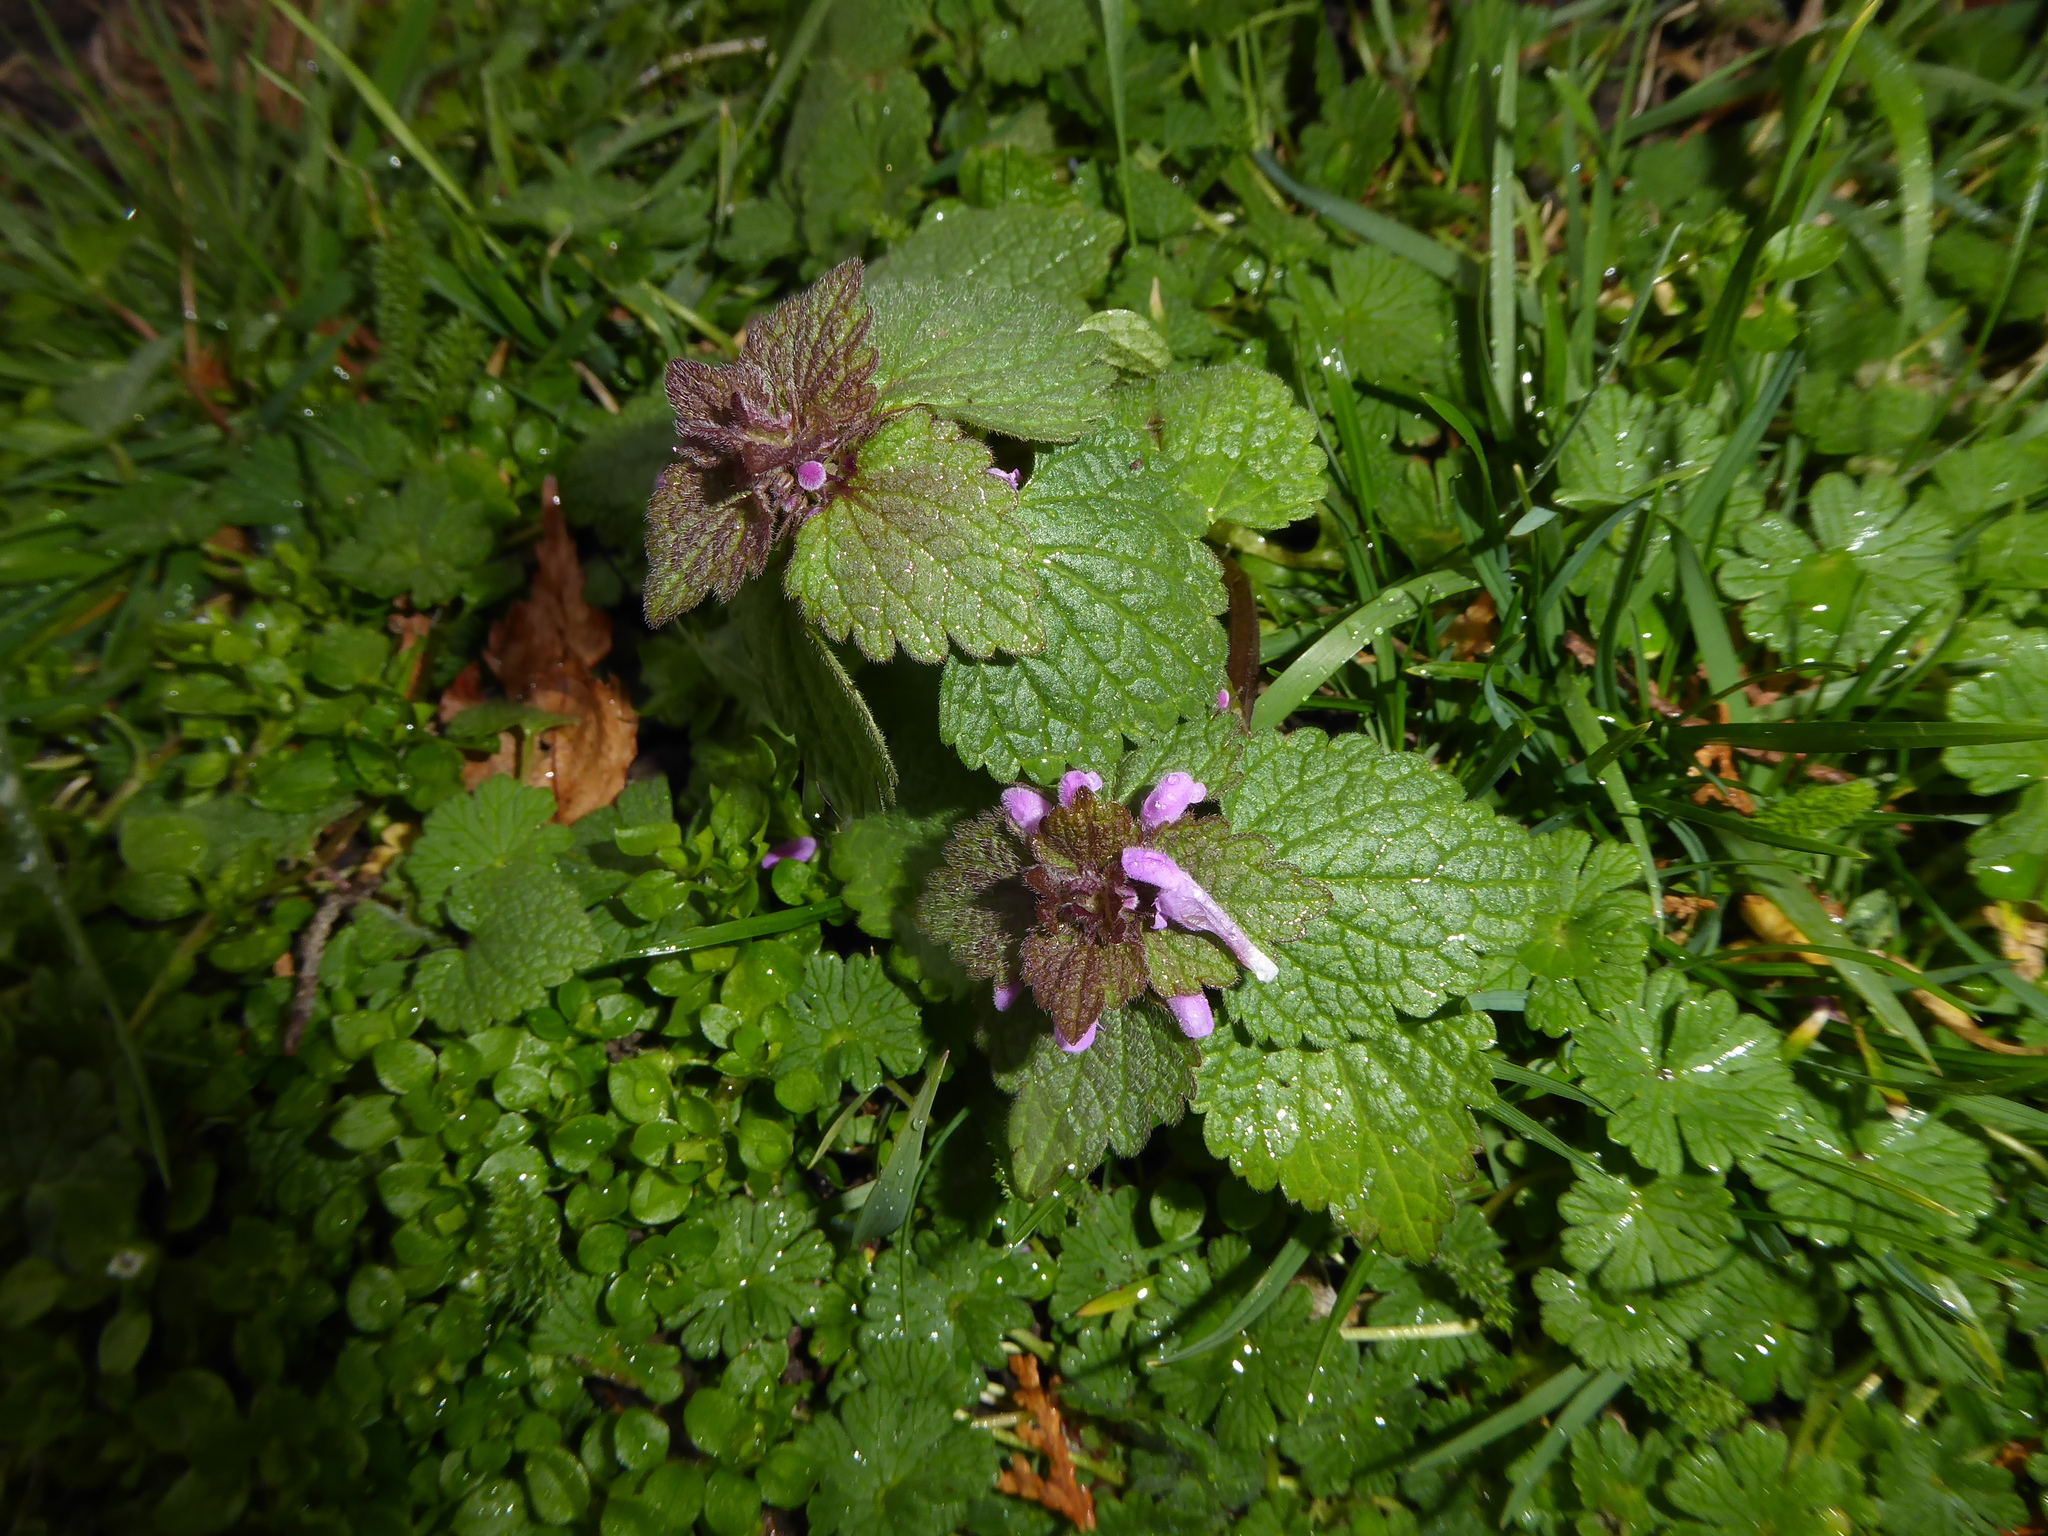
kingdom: Plantae
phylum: Tracheophyta
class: Magnoliopsida
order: Lamiales
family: Lamiaceae
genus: Lamium
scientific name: Lamium purpureum
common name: Red dead-nettle
